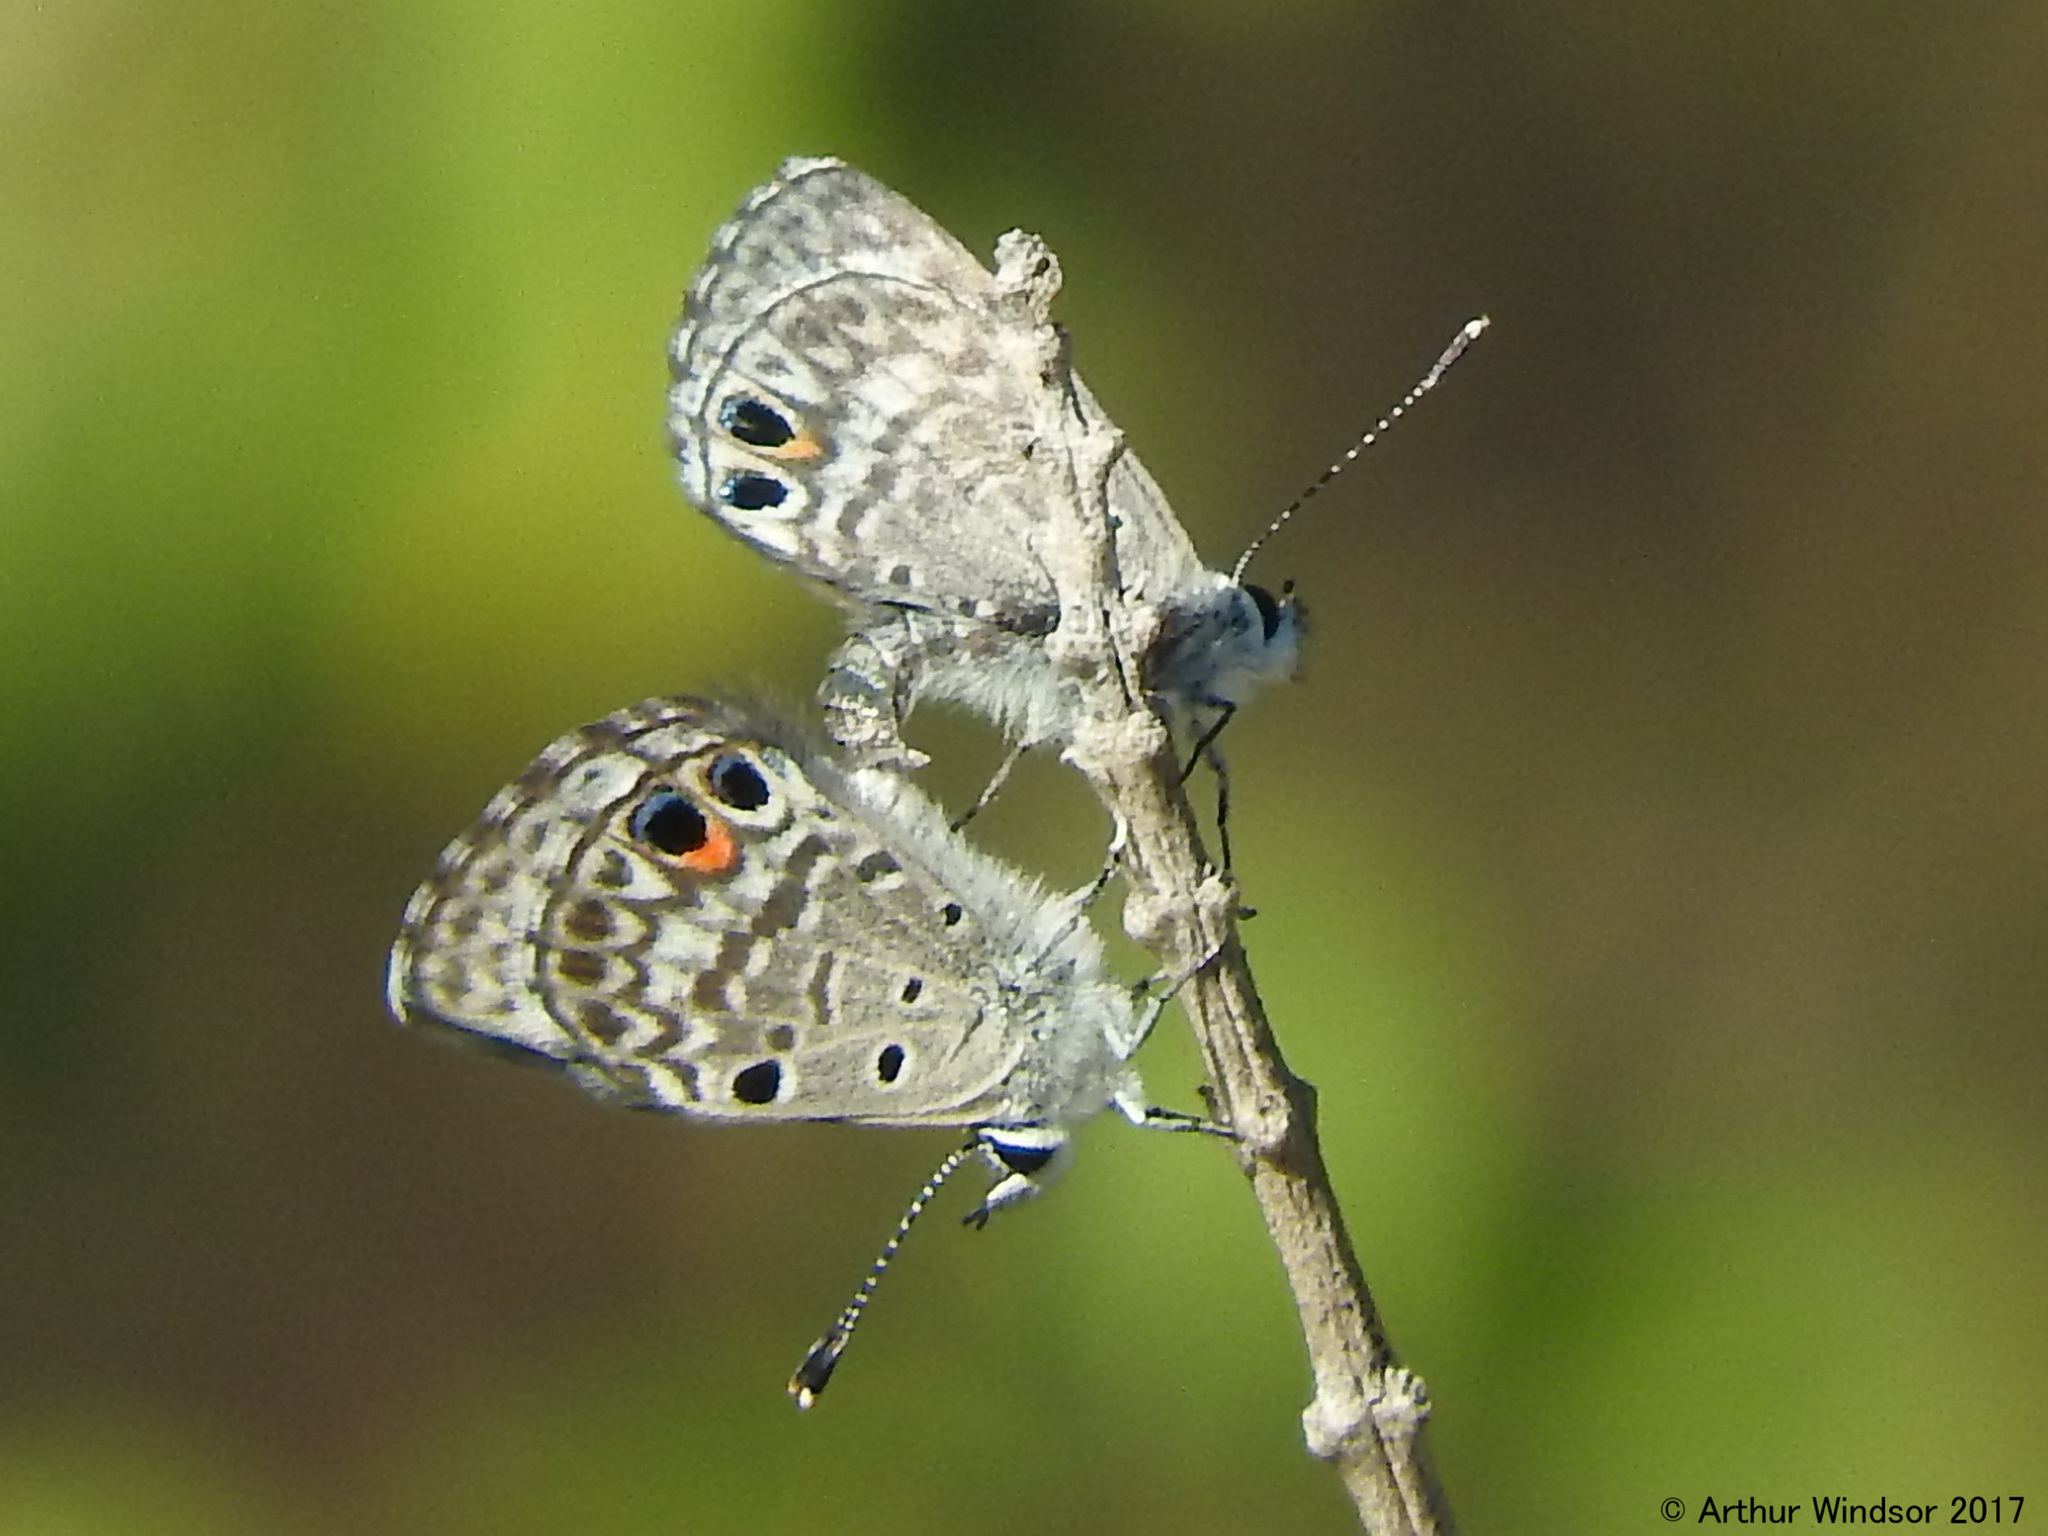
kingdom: Animalia
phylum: Arthropoda
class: Insecta
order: Lepidoptera
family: Lycaenidae
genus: Cyclargus
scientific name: Cyclargus thomasi
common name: Miami blue
